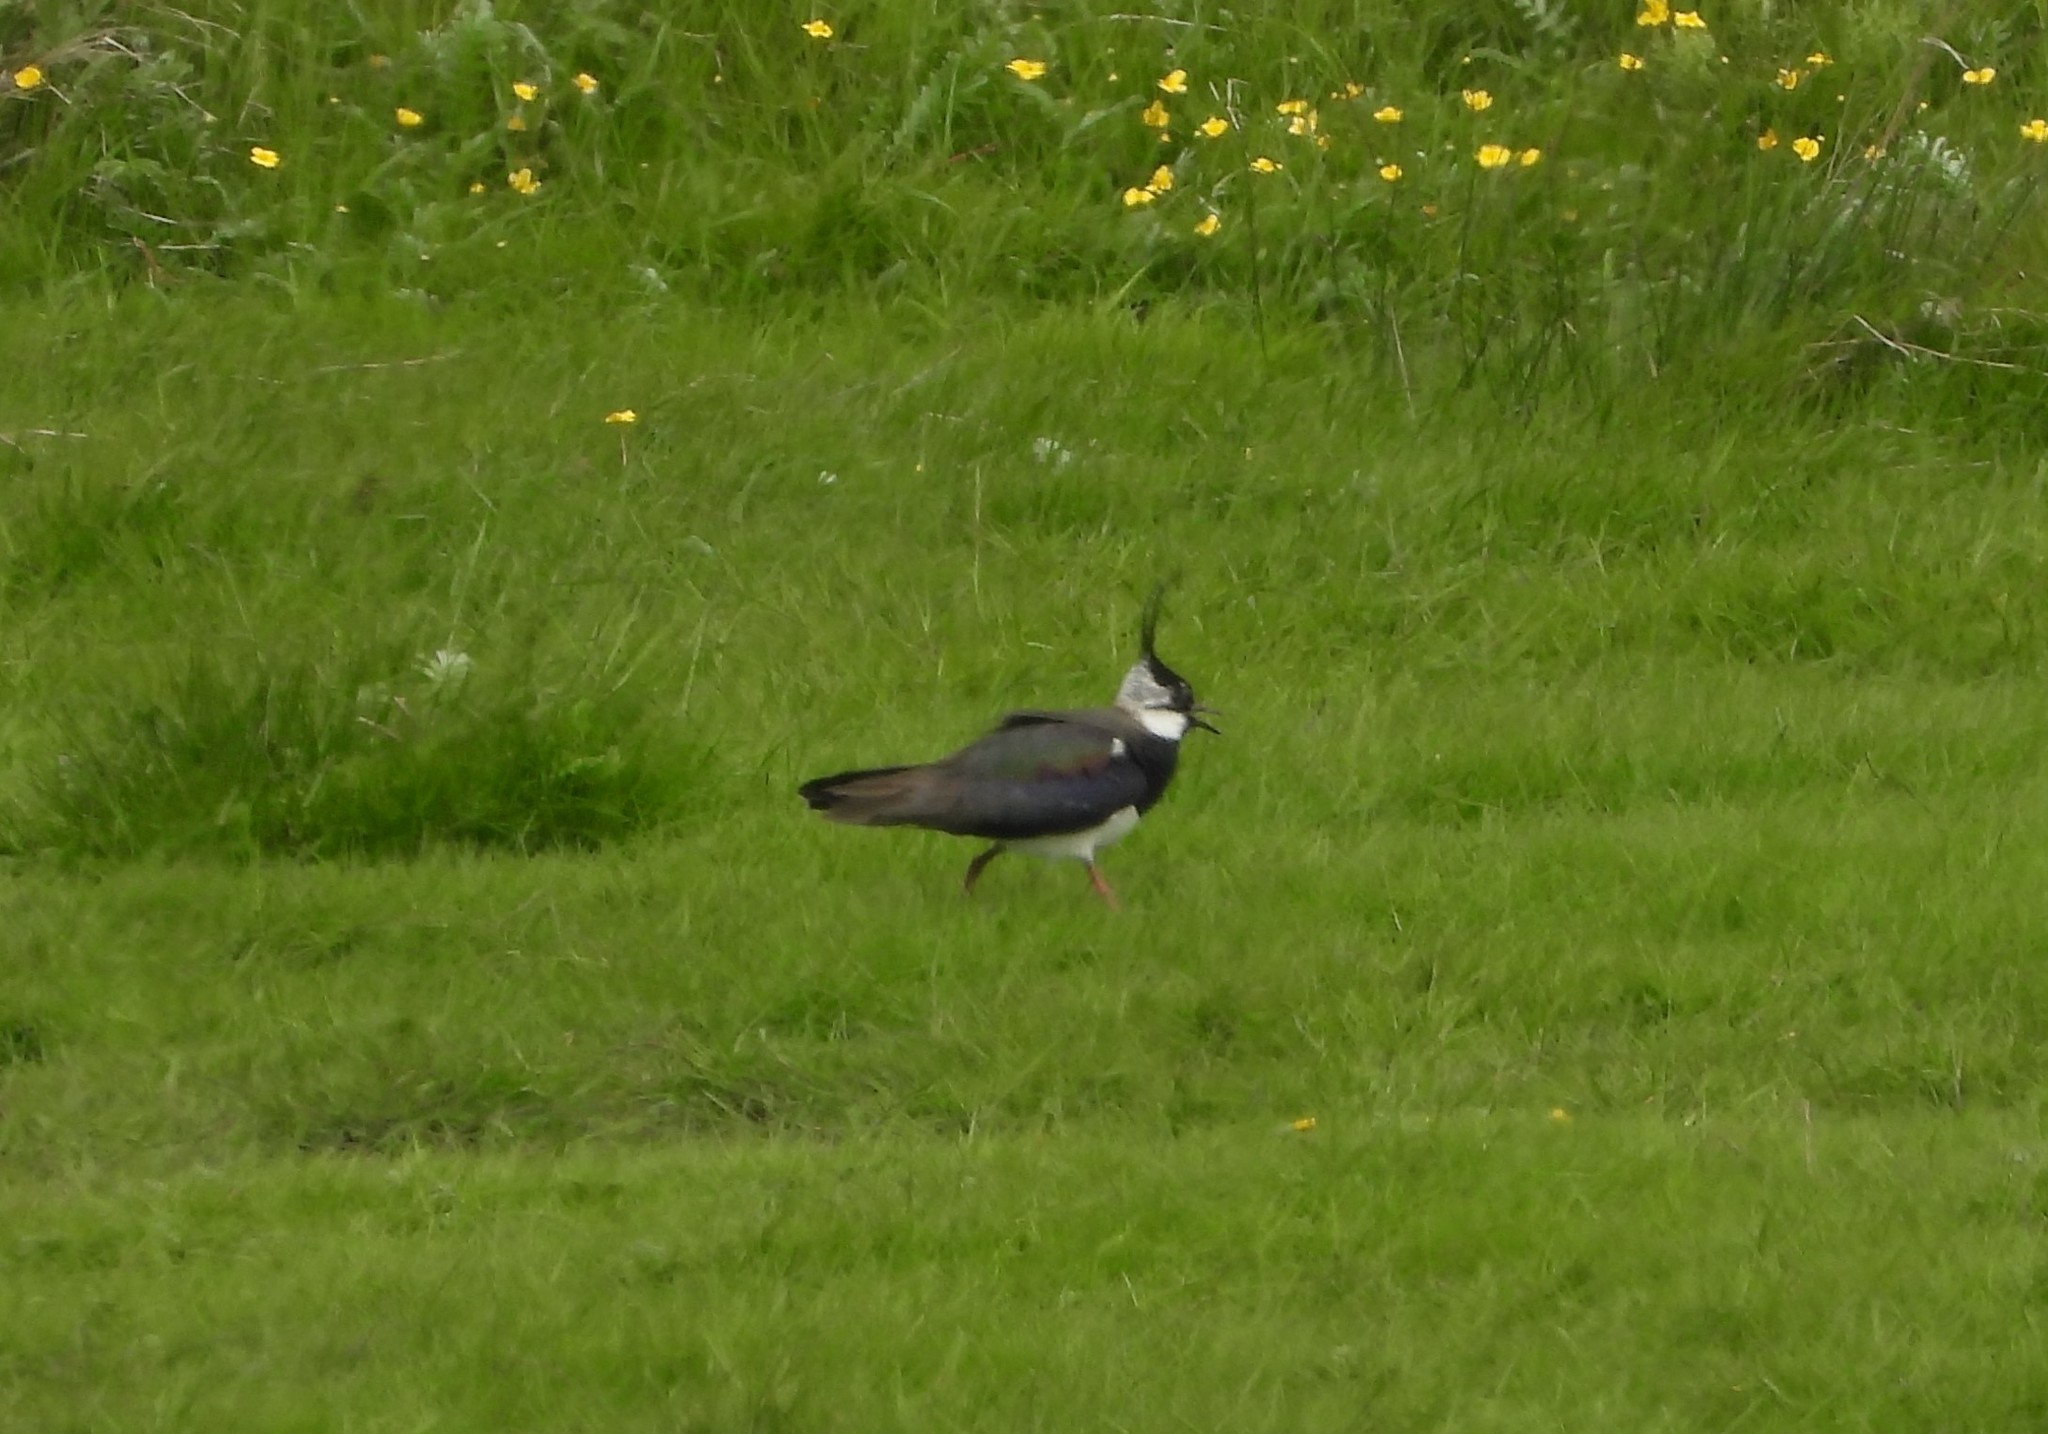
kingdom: Animalia
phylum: Chordata
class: Aves
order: Charadriiformes
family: Charadriidae
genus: Vanellus
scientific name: Vanellus vanellus
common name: Northern lapwing
